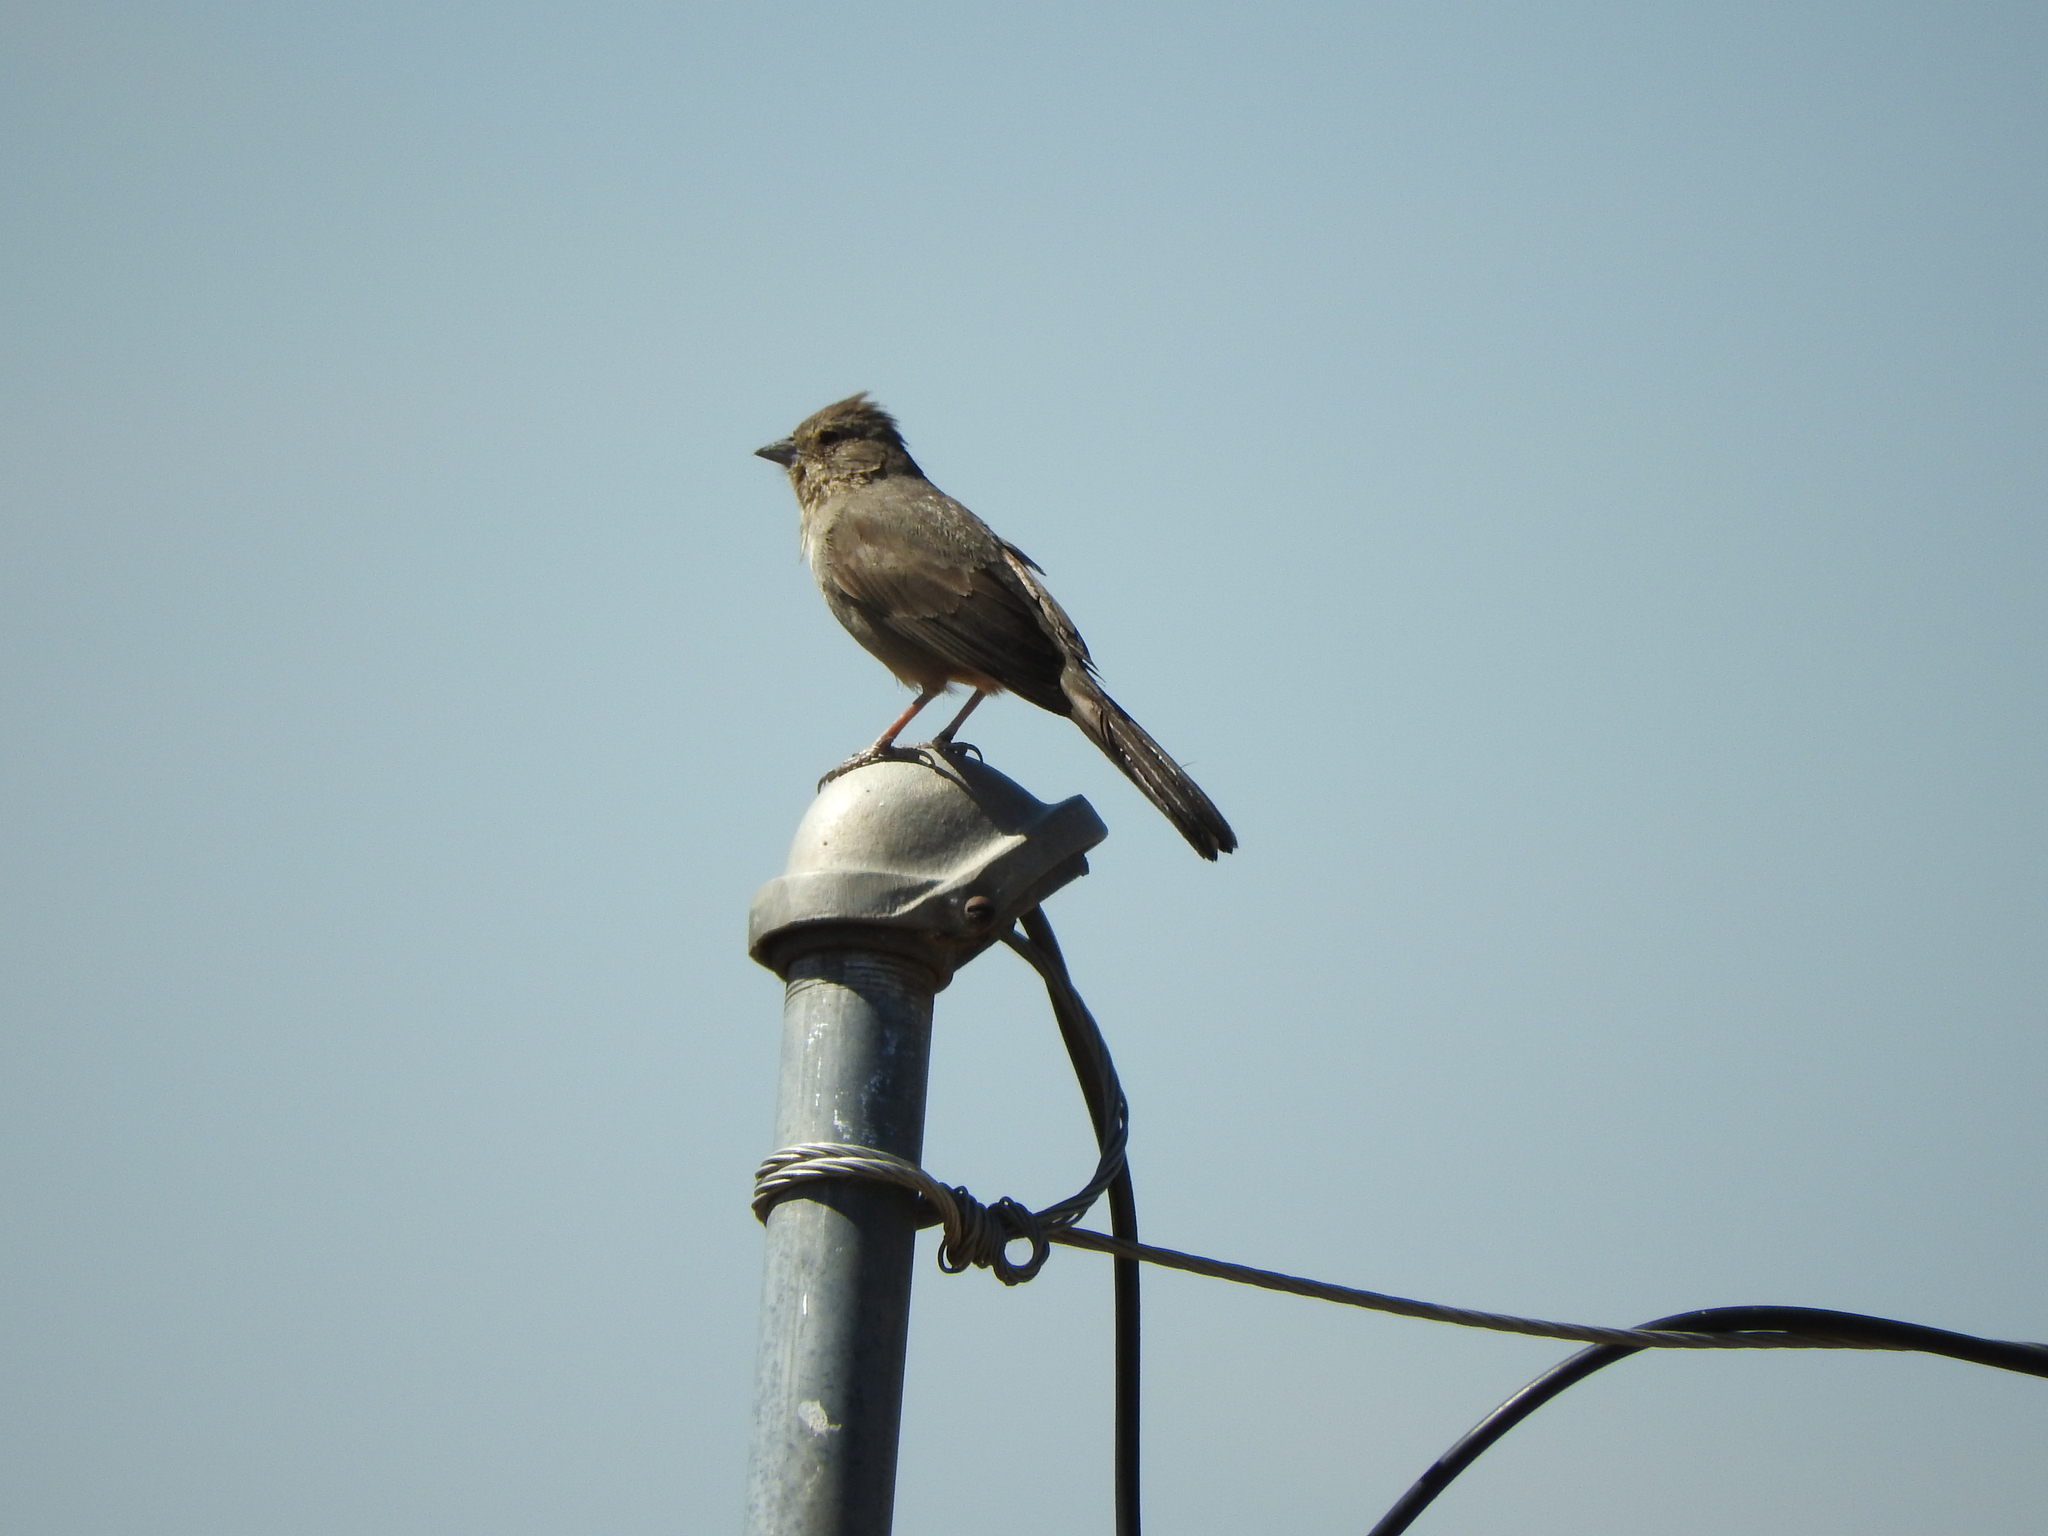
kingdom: Animalia
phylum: Chordata
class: Aves
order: Passeriformes
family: Passerellidae
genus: Melozone
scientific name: Melozone fusca
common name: Canyon towhee
